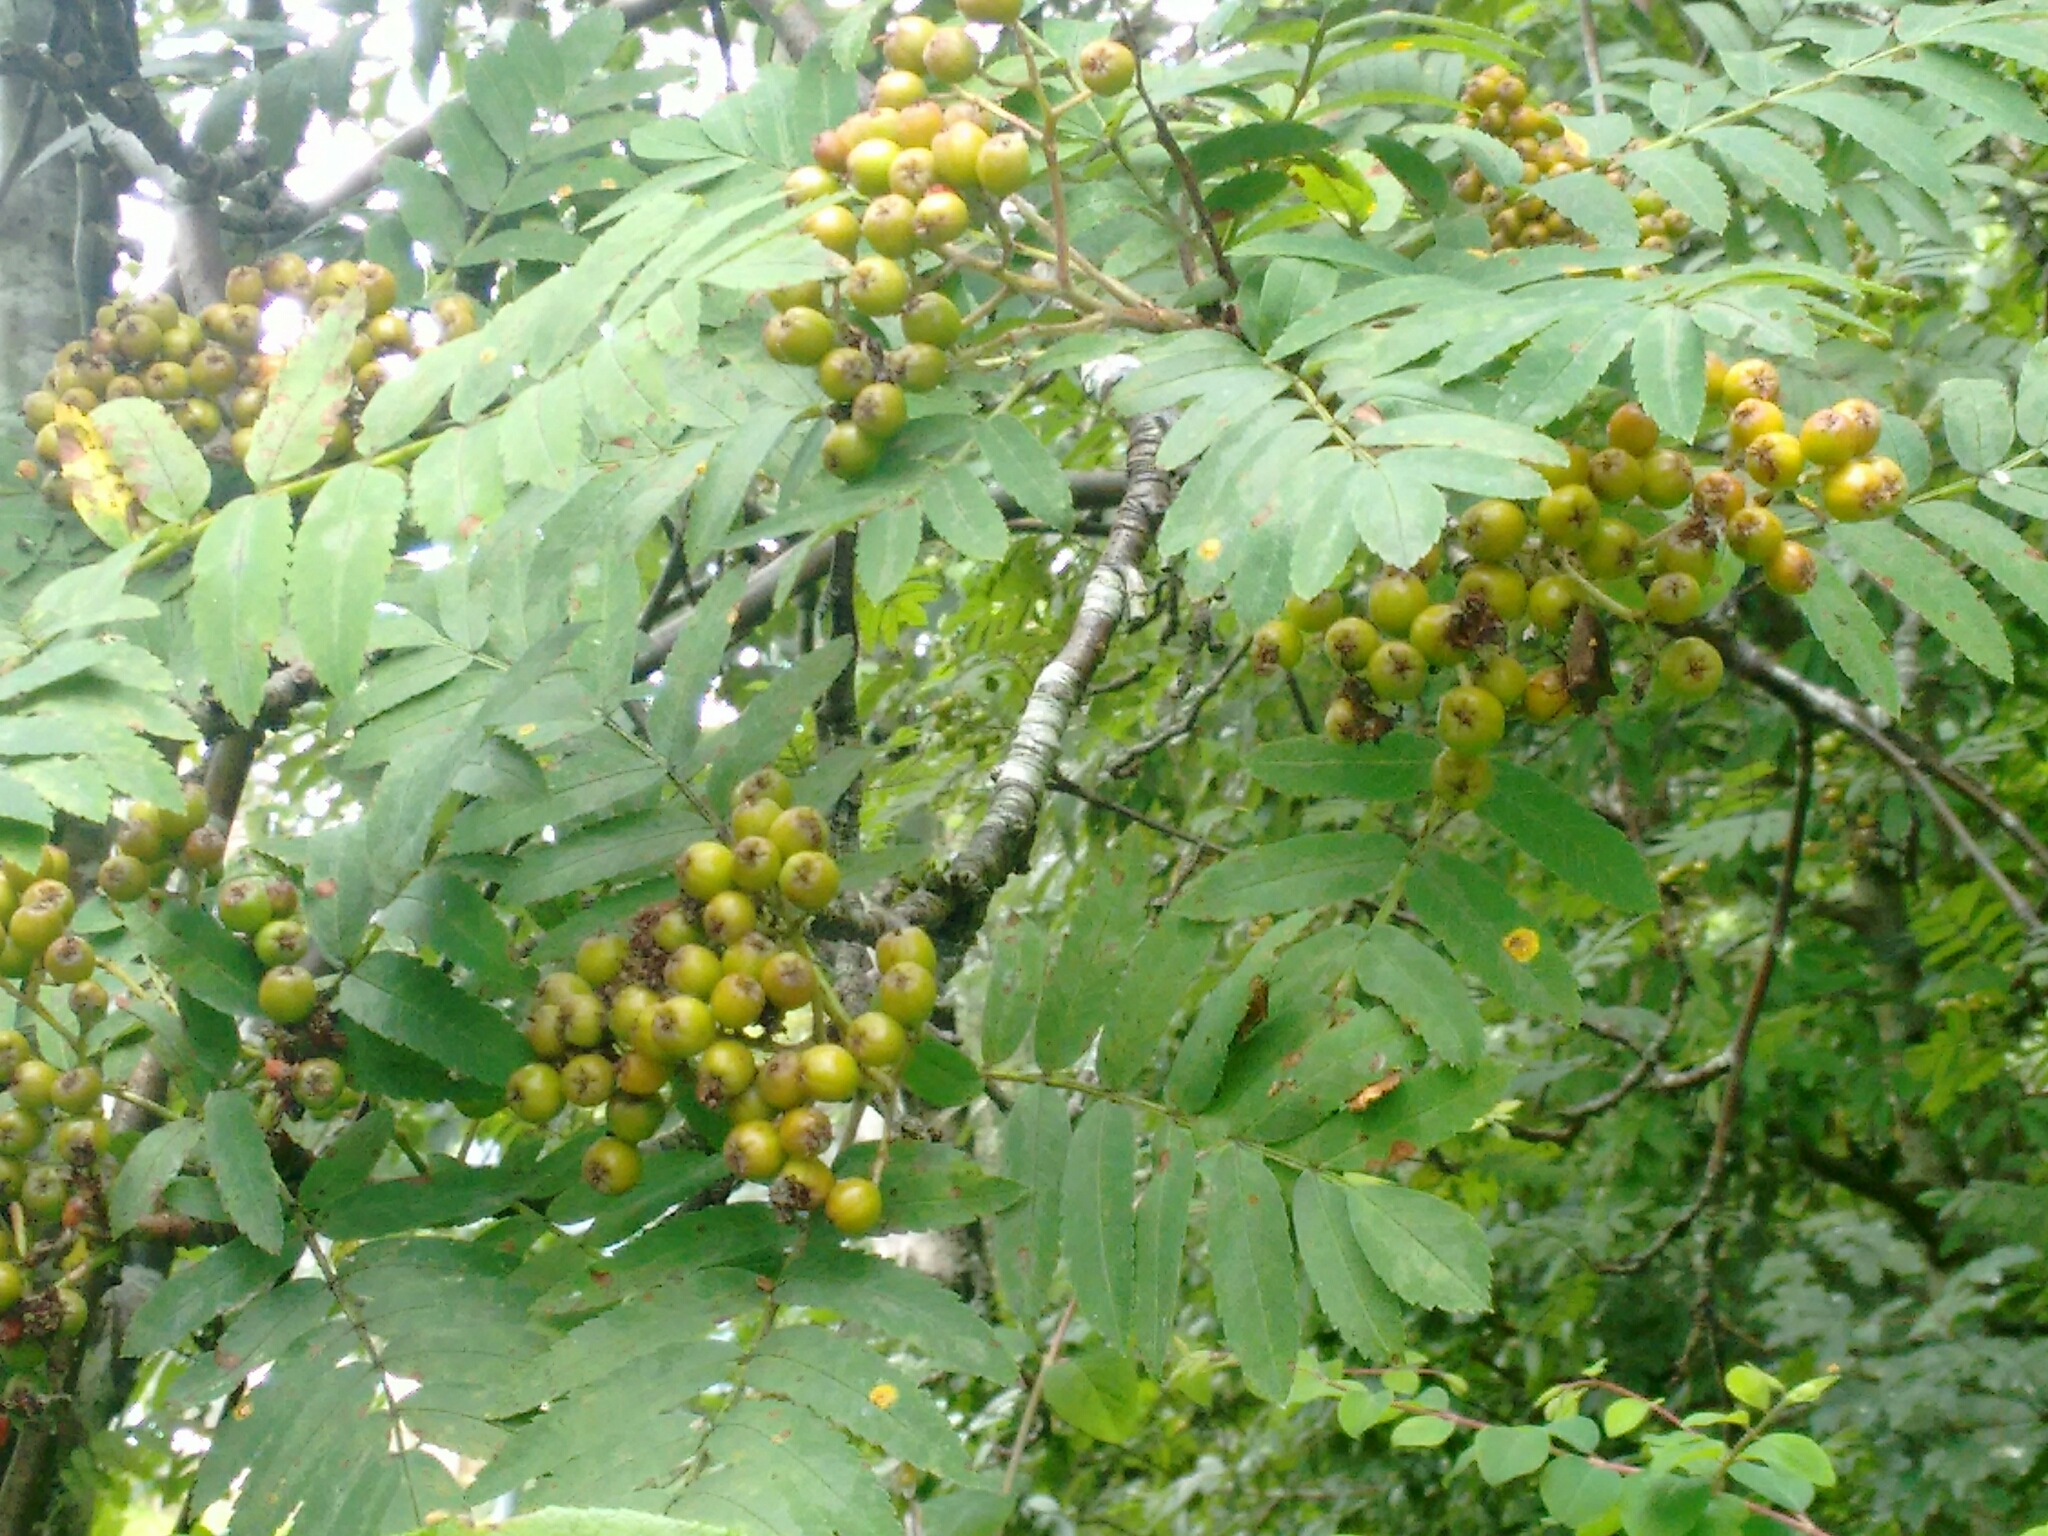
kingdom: Plantae
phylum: Tracheophyta
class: Magnoliopsida
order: Rosales
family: Rosaceae
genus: Sorbus
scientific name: Sorbus aucuparia
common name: Rowan
